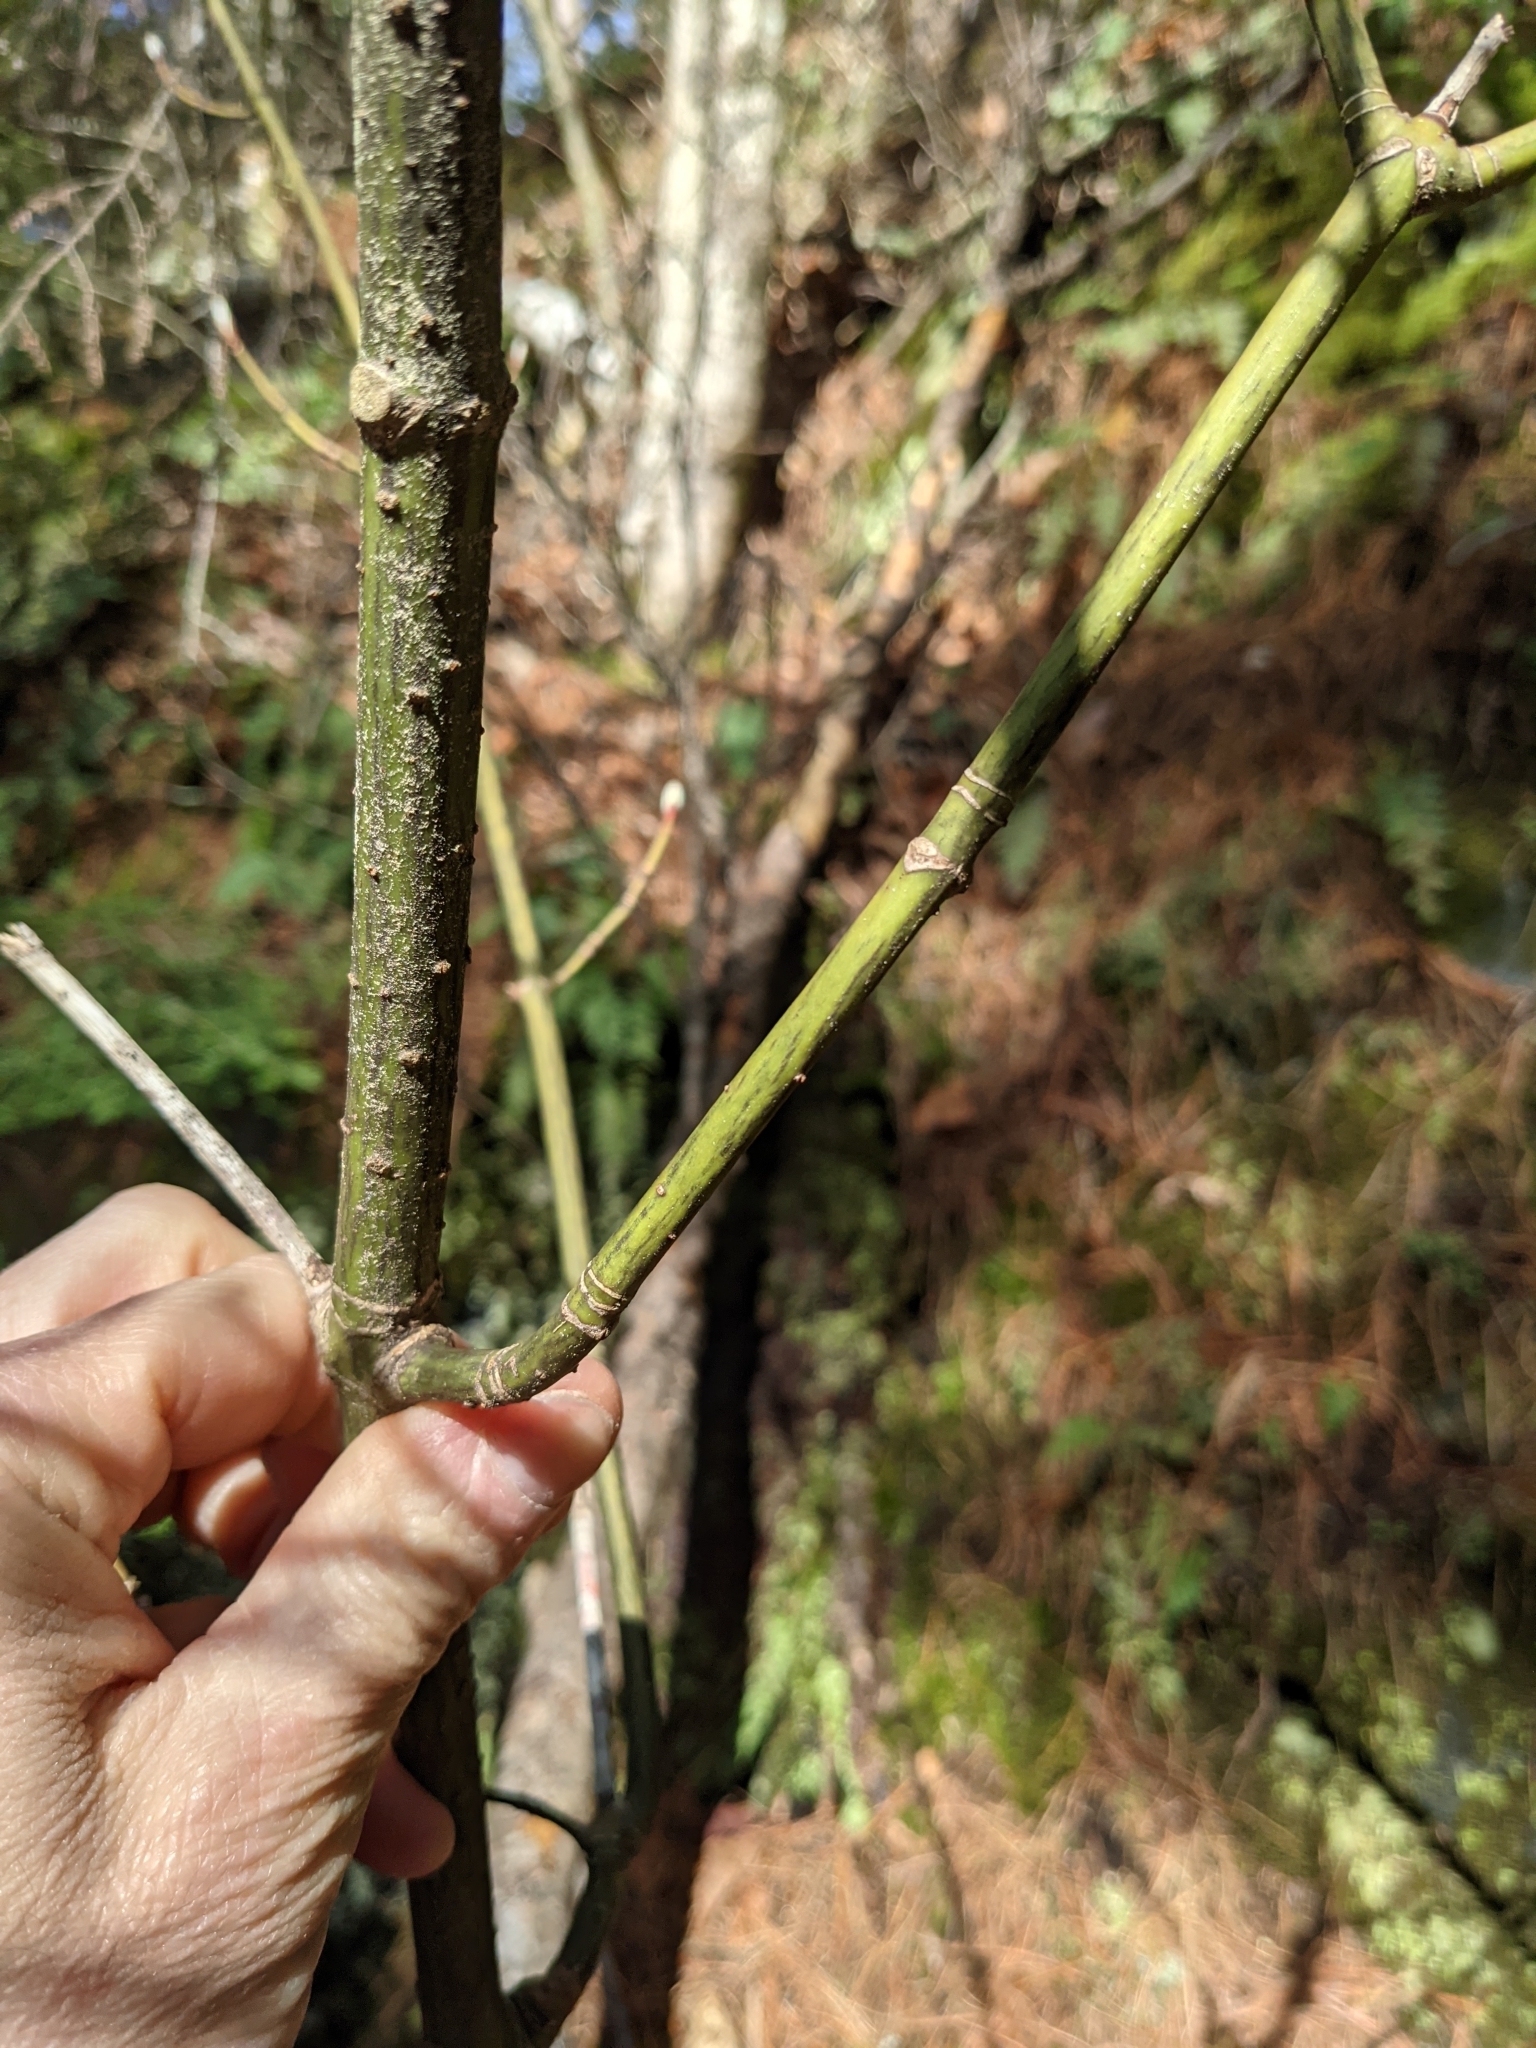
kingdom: Plantae
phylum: Tracheophyta
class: Magnoliopsida
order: Sapindales
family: Sapindaceae
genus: Acer
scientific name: Acer pensylvanicum
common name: Moosewood
